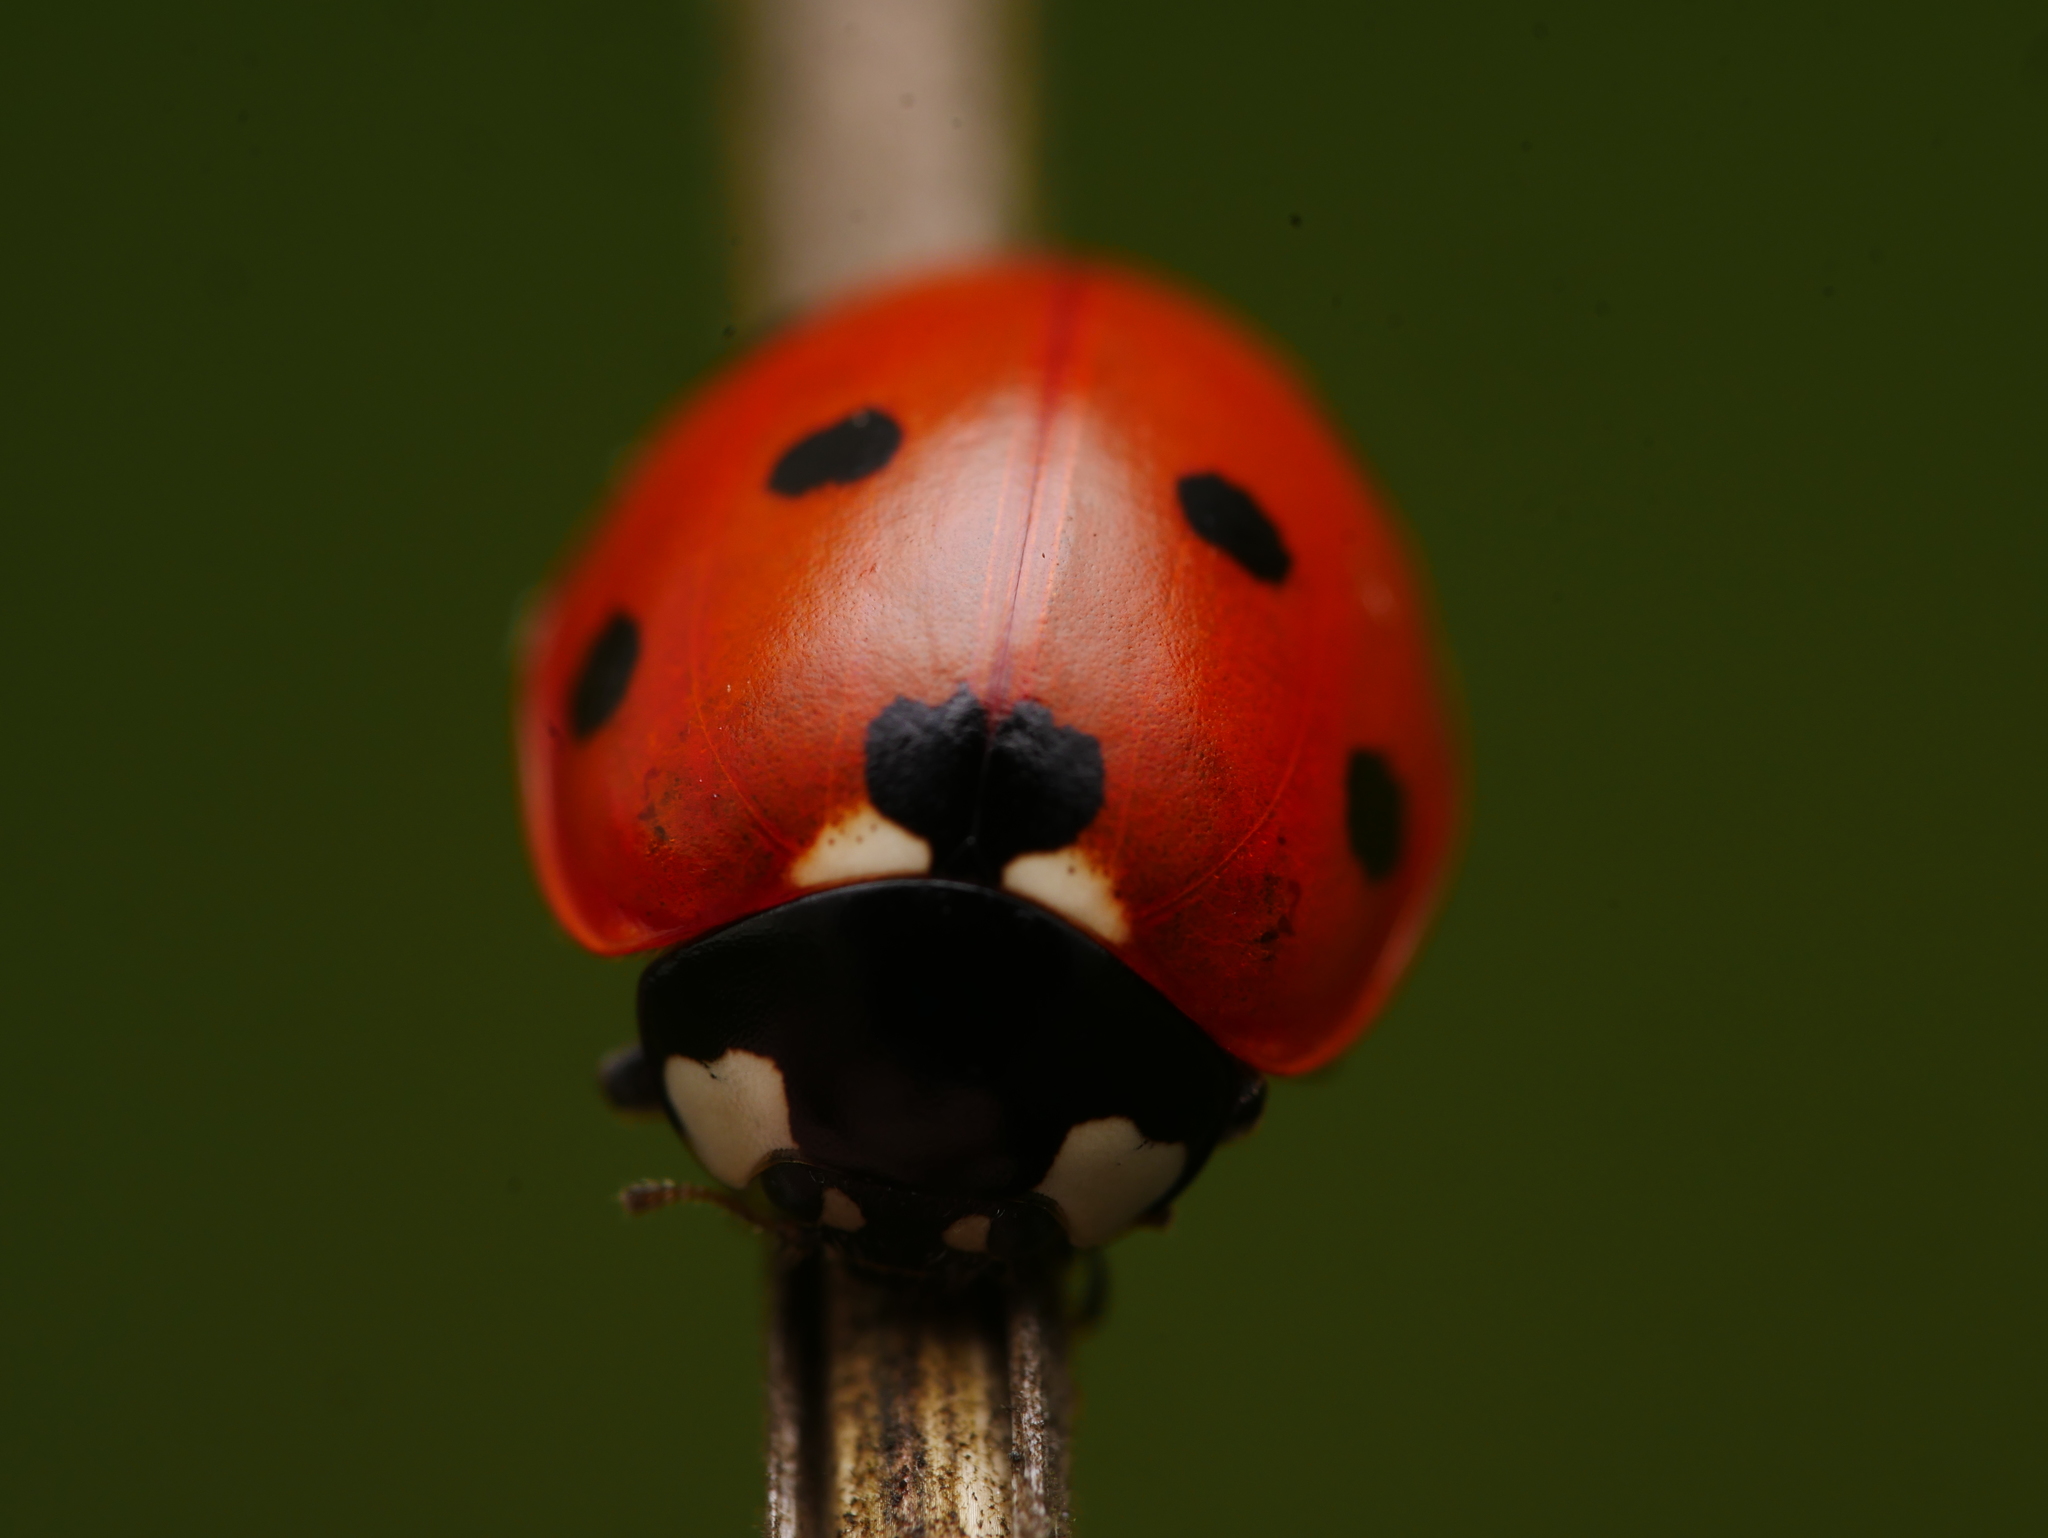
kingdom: Animalia
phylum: Arthropoda
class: Insecta
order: Coleoptera
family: Coccinellidae
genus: Coccinella
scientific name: Coccinella septempunctata
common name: Sevenspotted lady beetle
